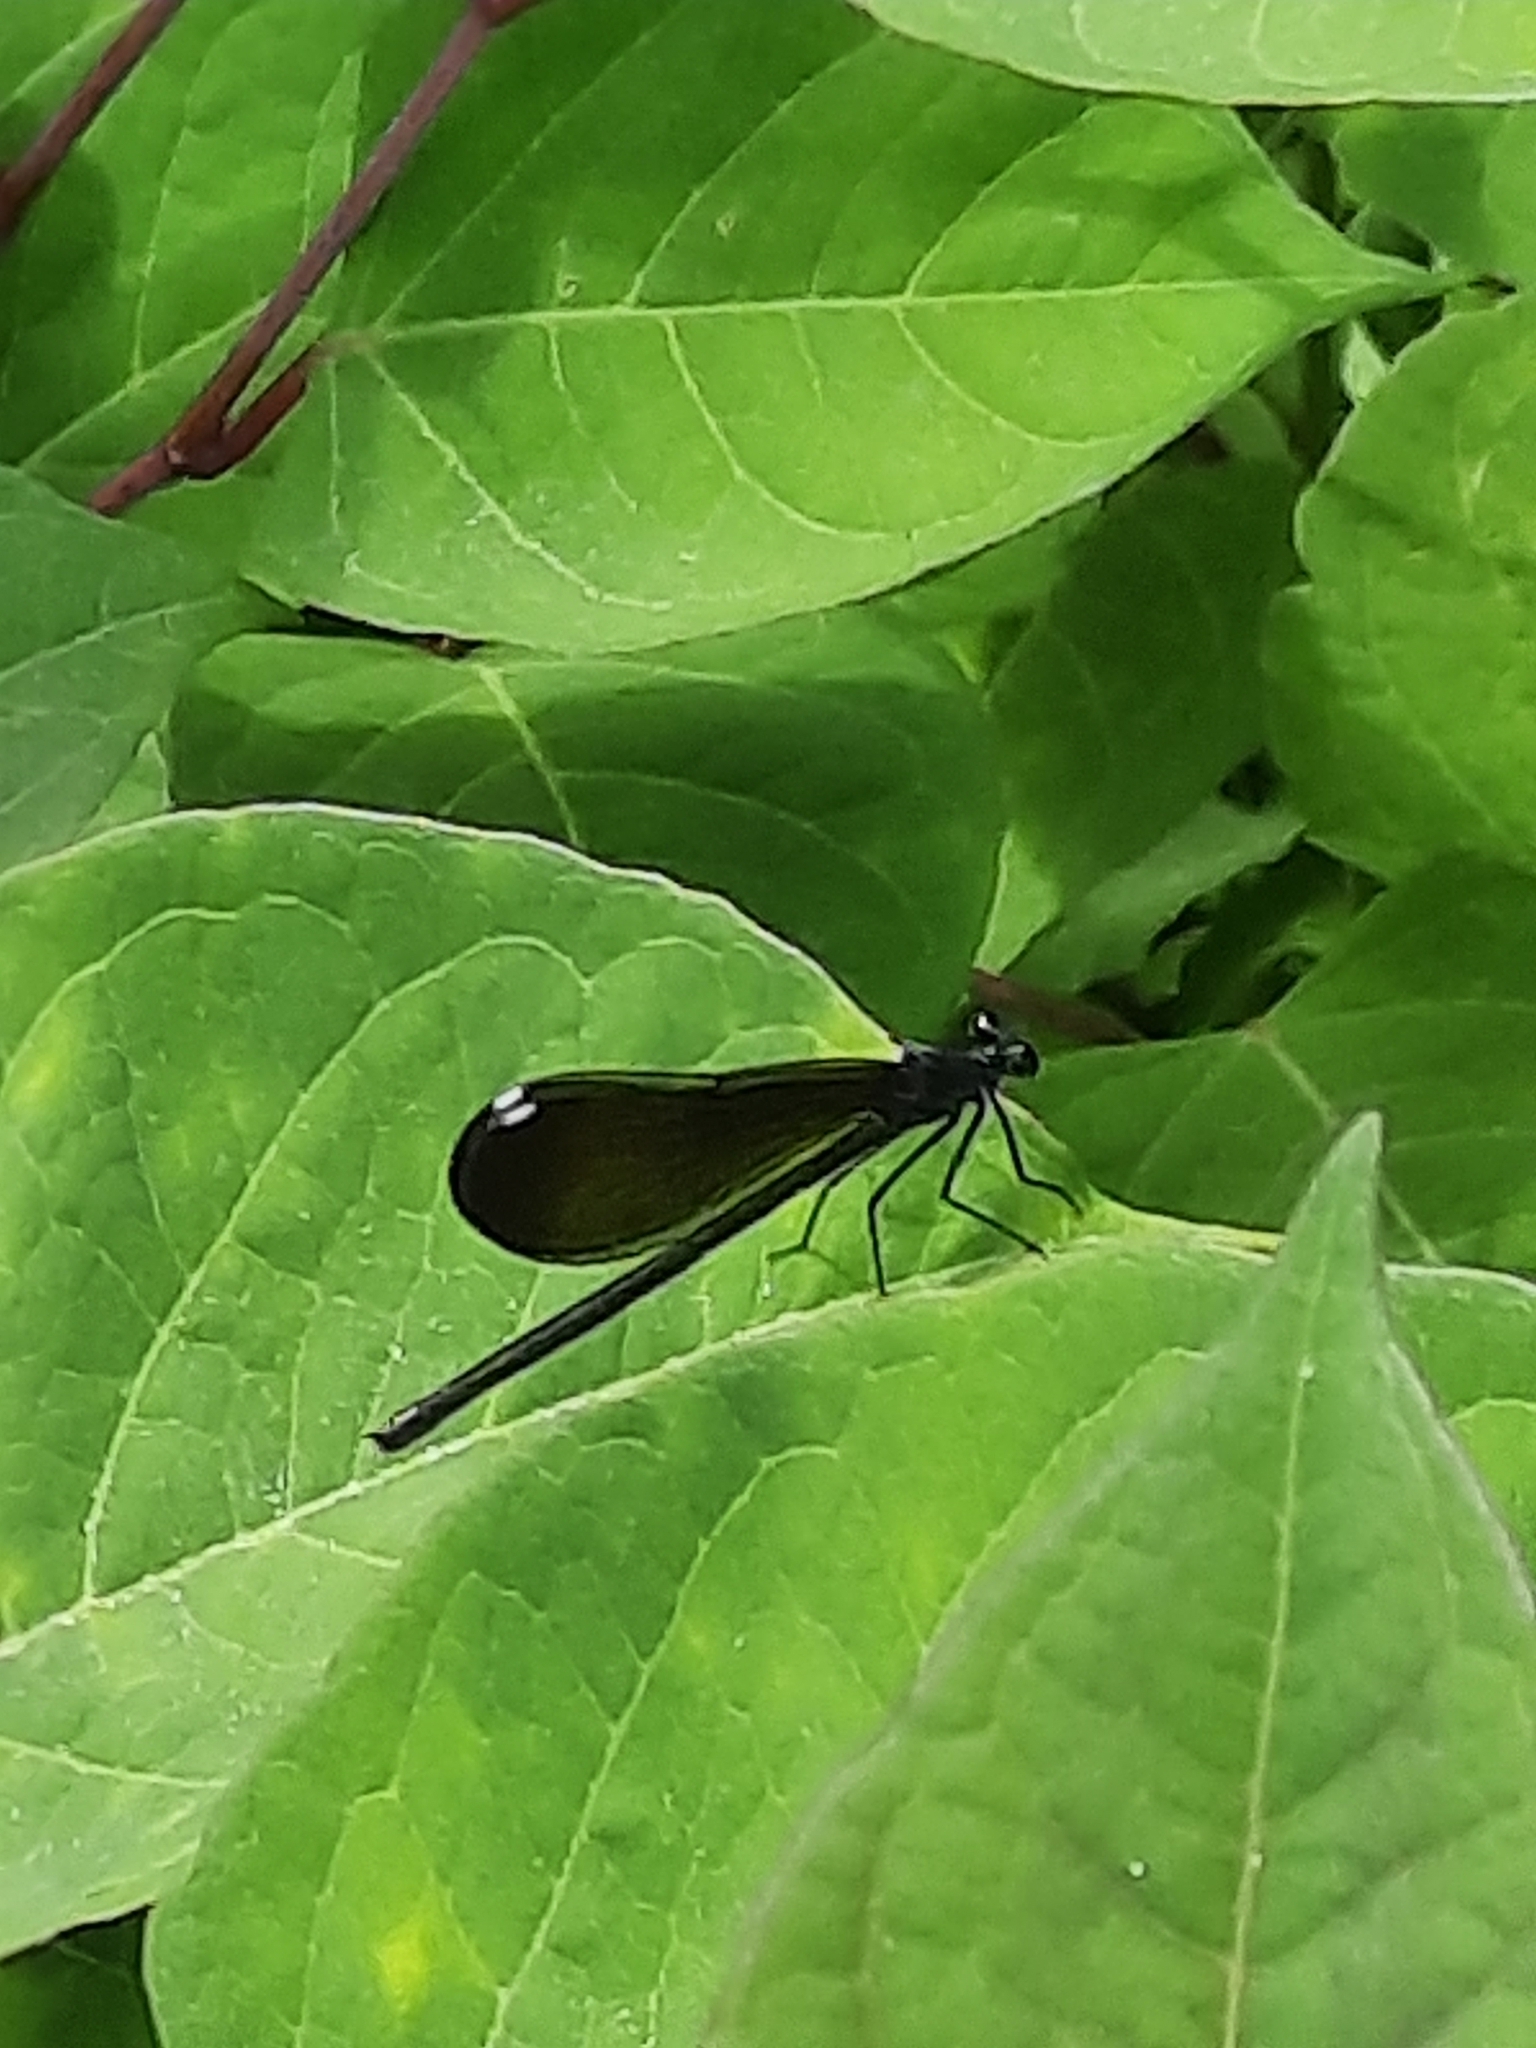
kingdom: Animalia
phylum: Arthropoda
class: Insecta
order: Odonata
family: Calopterygidae
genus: Calopteryx
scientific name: Calopteryx maculata
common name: Ebony jewelwing
